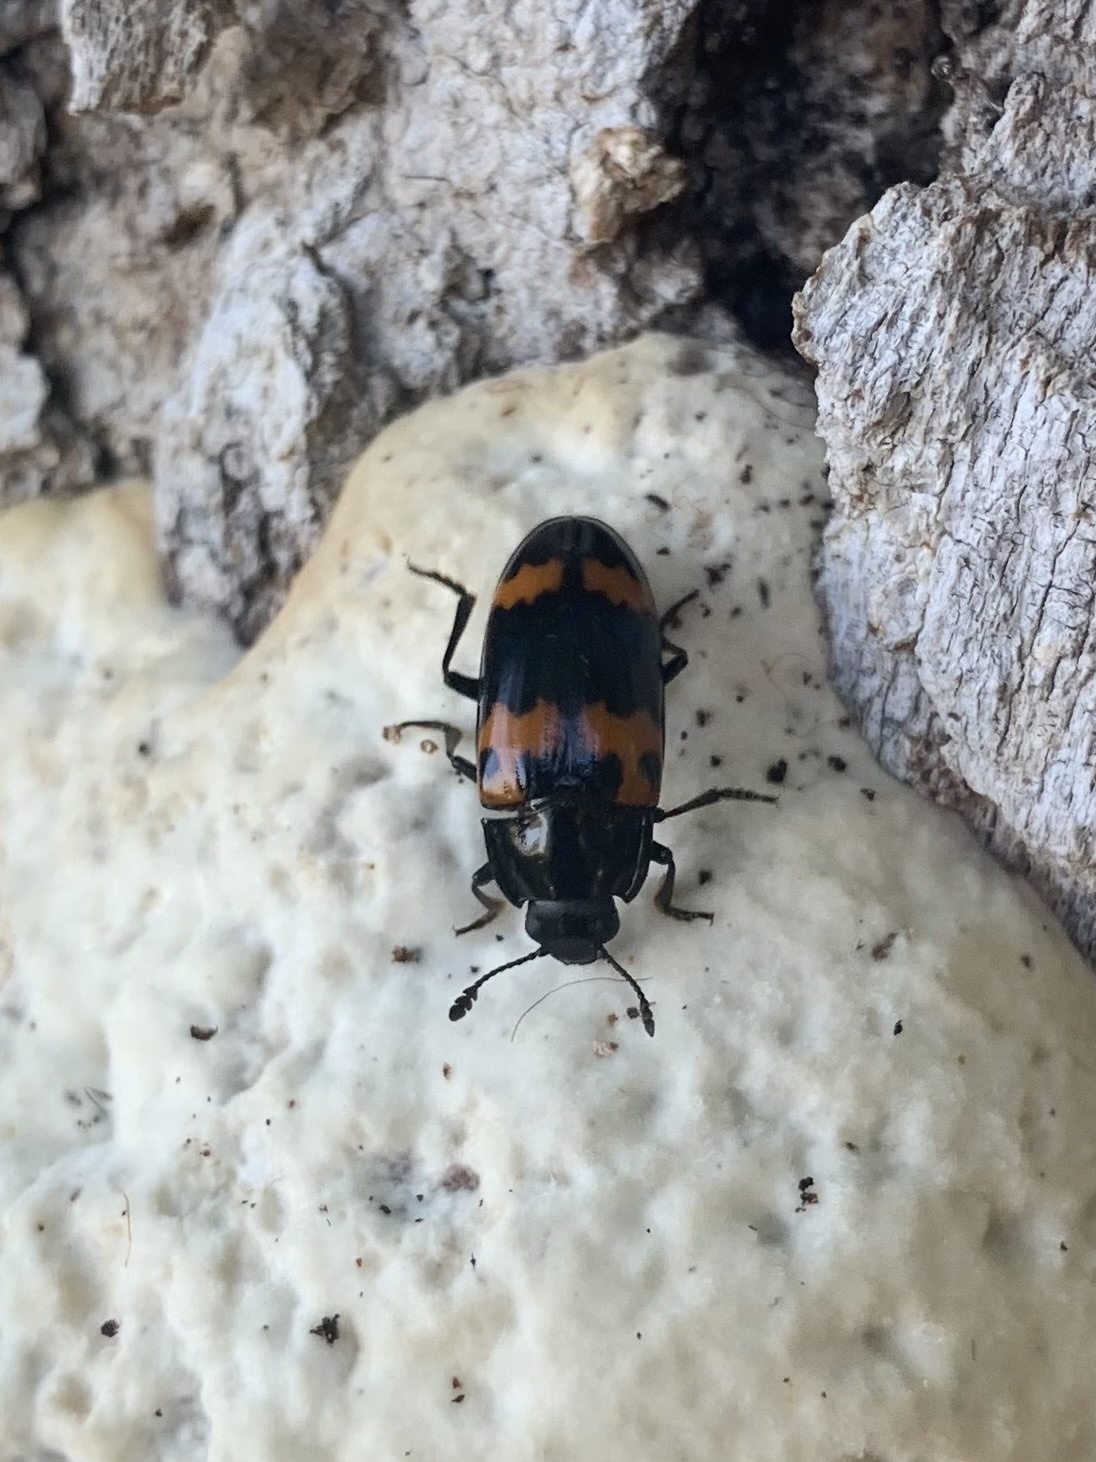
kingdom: Animalia
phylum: Arthropoda
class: Insecta
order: Coleoptera
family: Erotylidae
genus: Megalodacne
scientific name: Megalodacne fasciata
